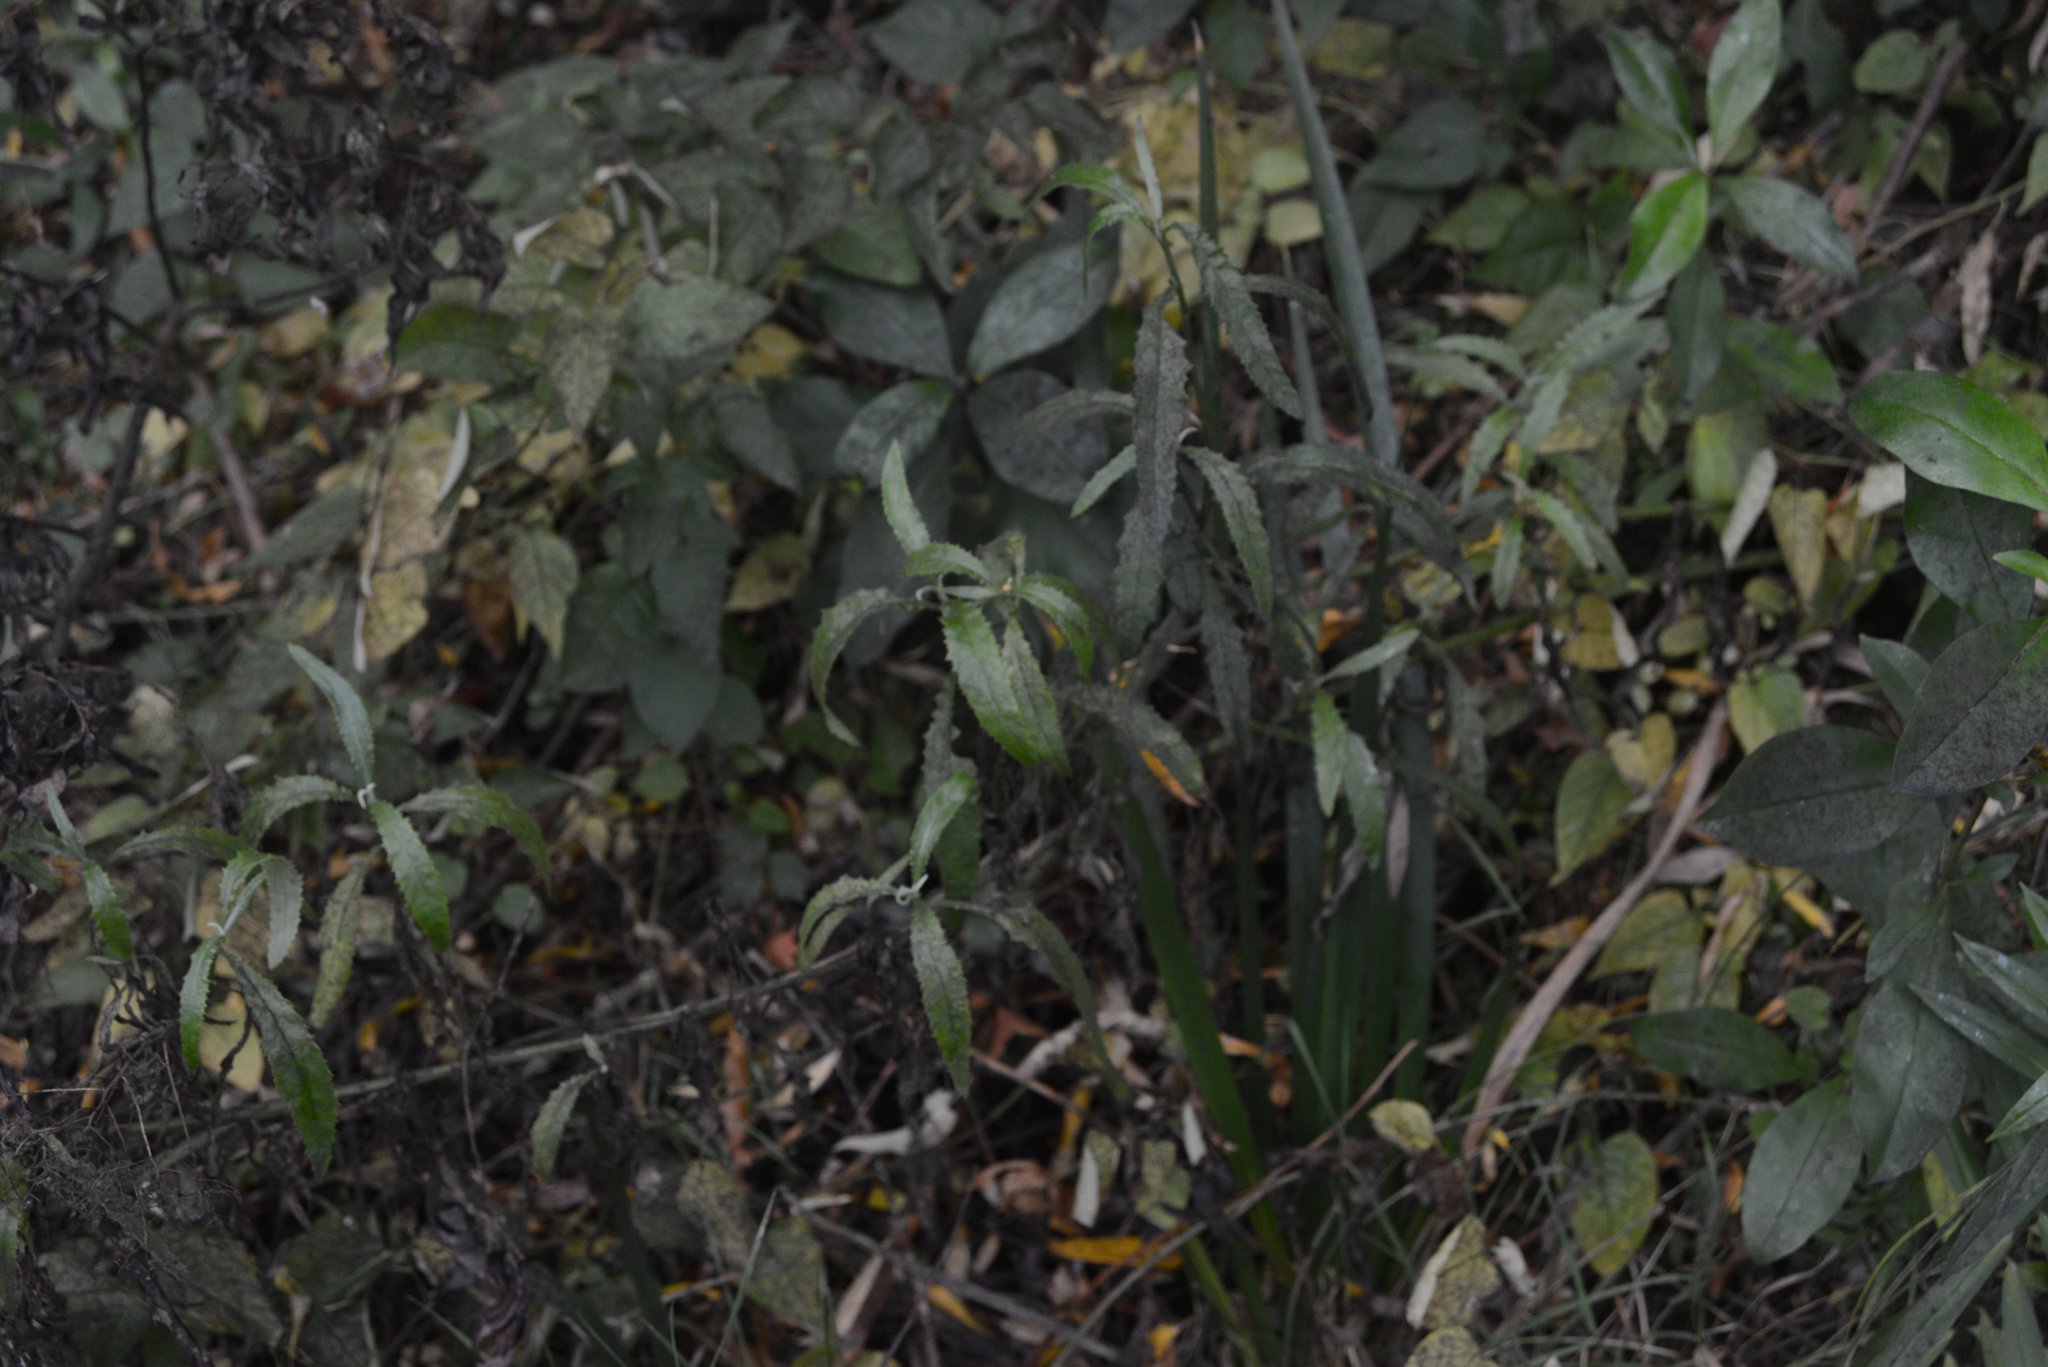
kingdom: Plantae
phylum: Tracheophyta
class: Magnoliopsida
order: Asterales
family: Asteraceae
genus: Senecio
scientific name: Senecio minimus
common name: Toothed fireweed
